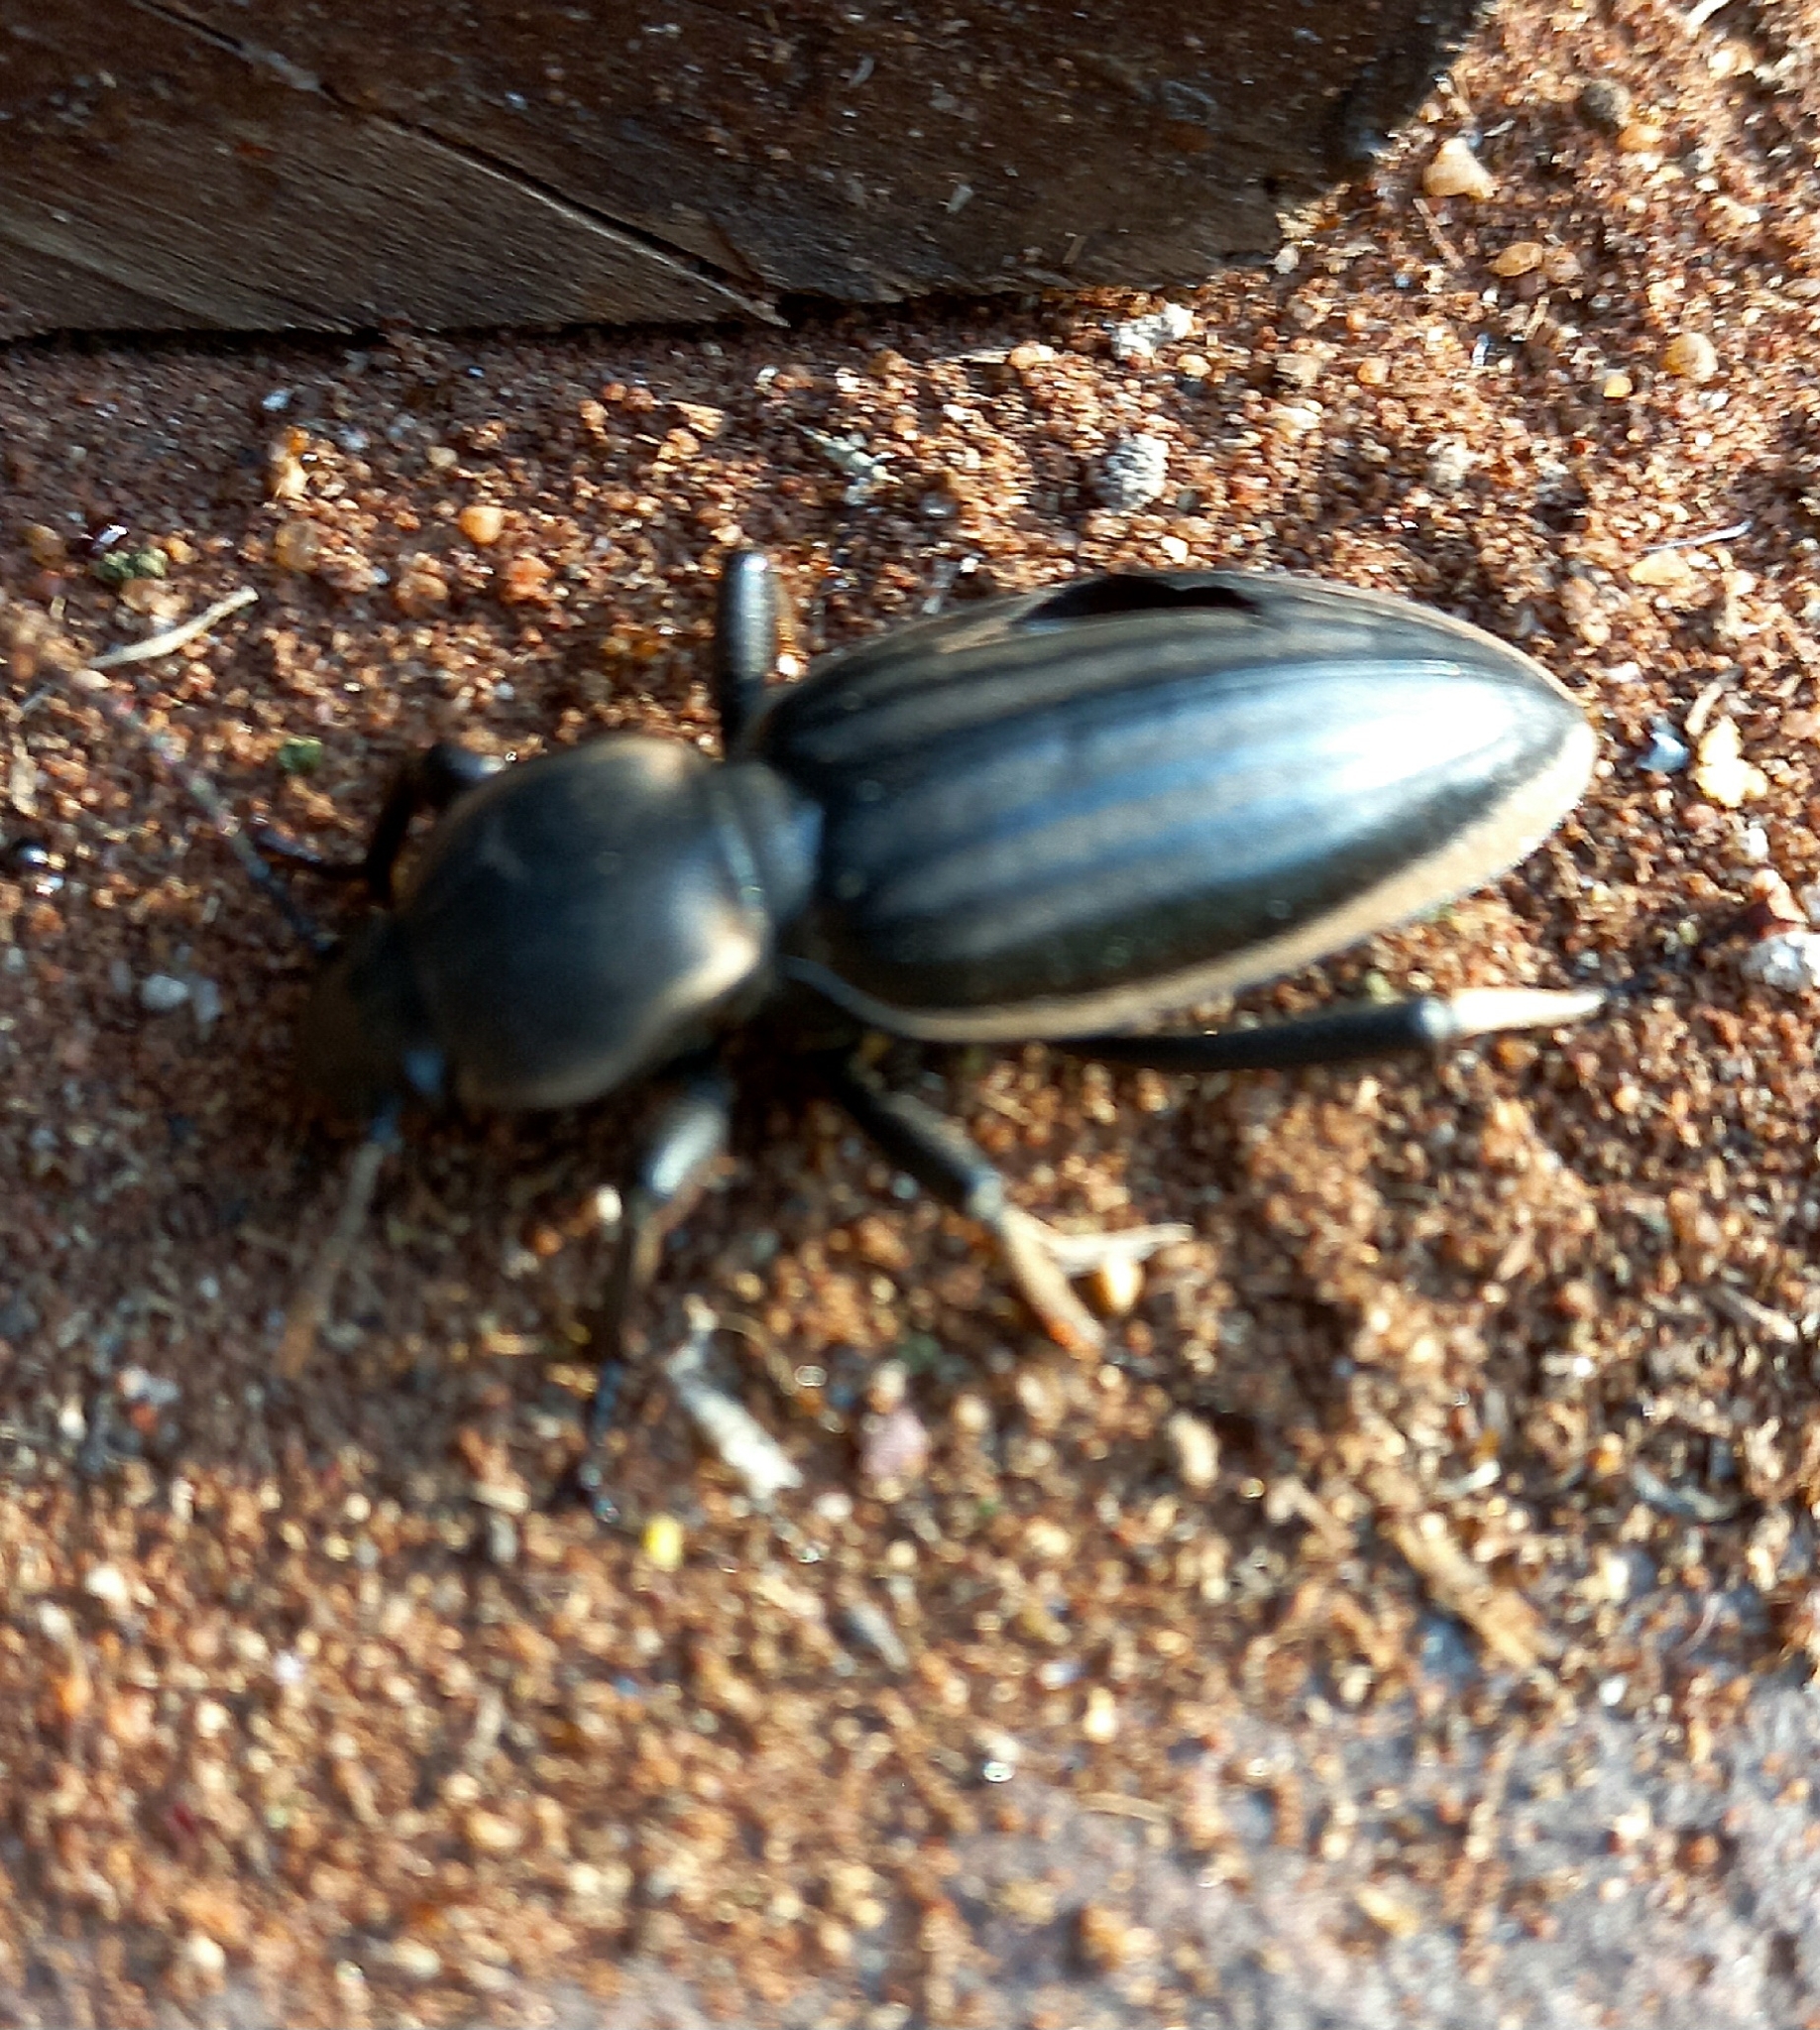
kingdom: Animalia
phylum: Arthropoda
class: Insecta
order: Coleoptera
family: Tenebrionidae
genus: Chiliarchum
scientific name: Chiliarchum
